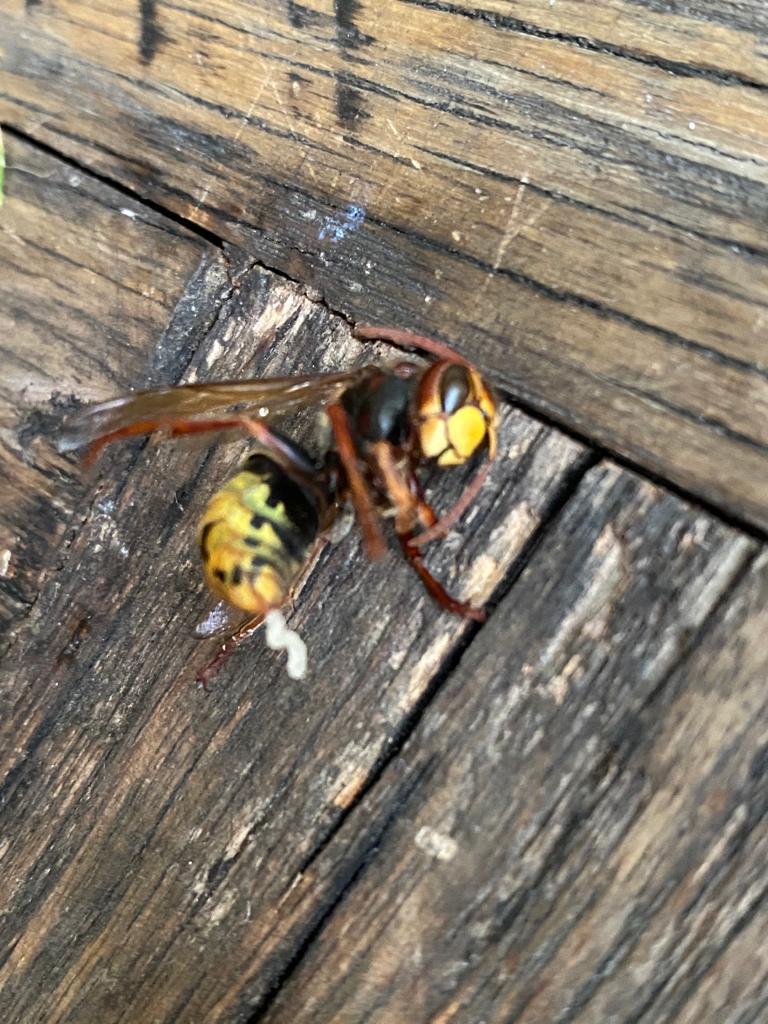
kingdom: Animalia
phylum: Arthropoda
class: Insecta
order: Hymenoptera
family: Vespidae
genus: Vespa
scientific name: Vespa crabro
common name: Hornet
